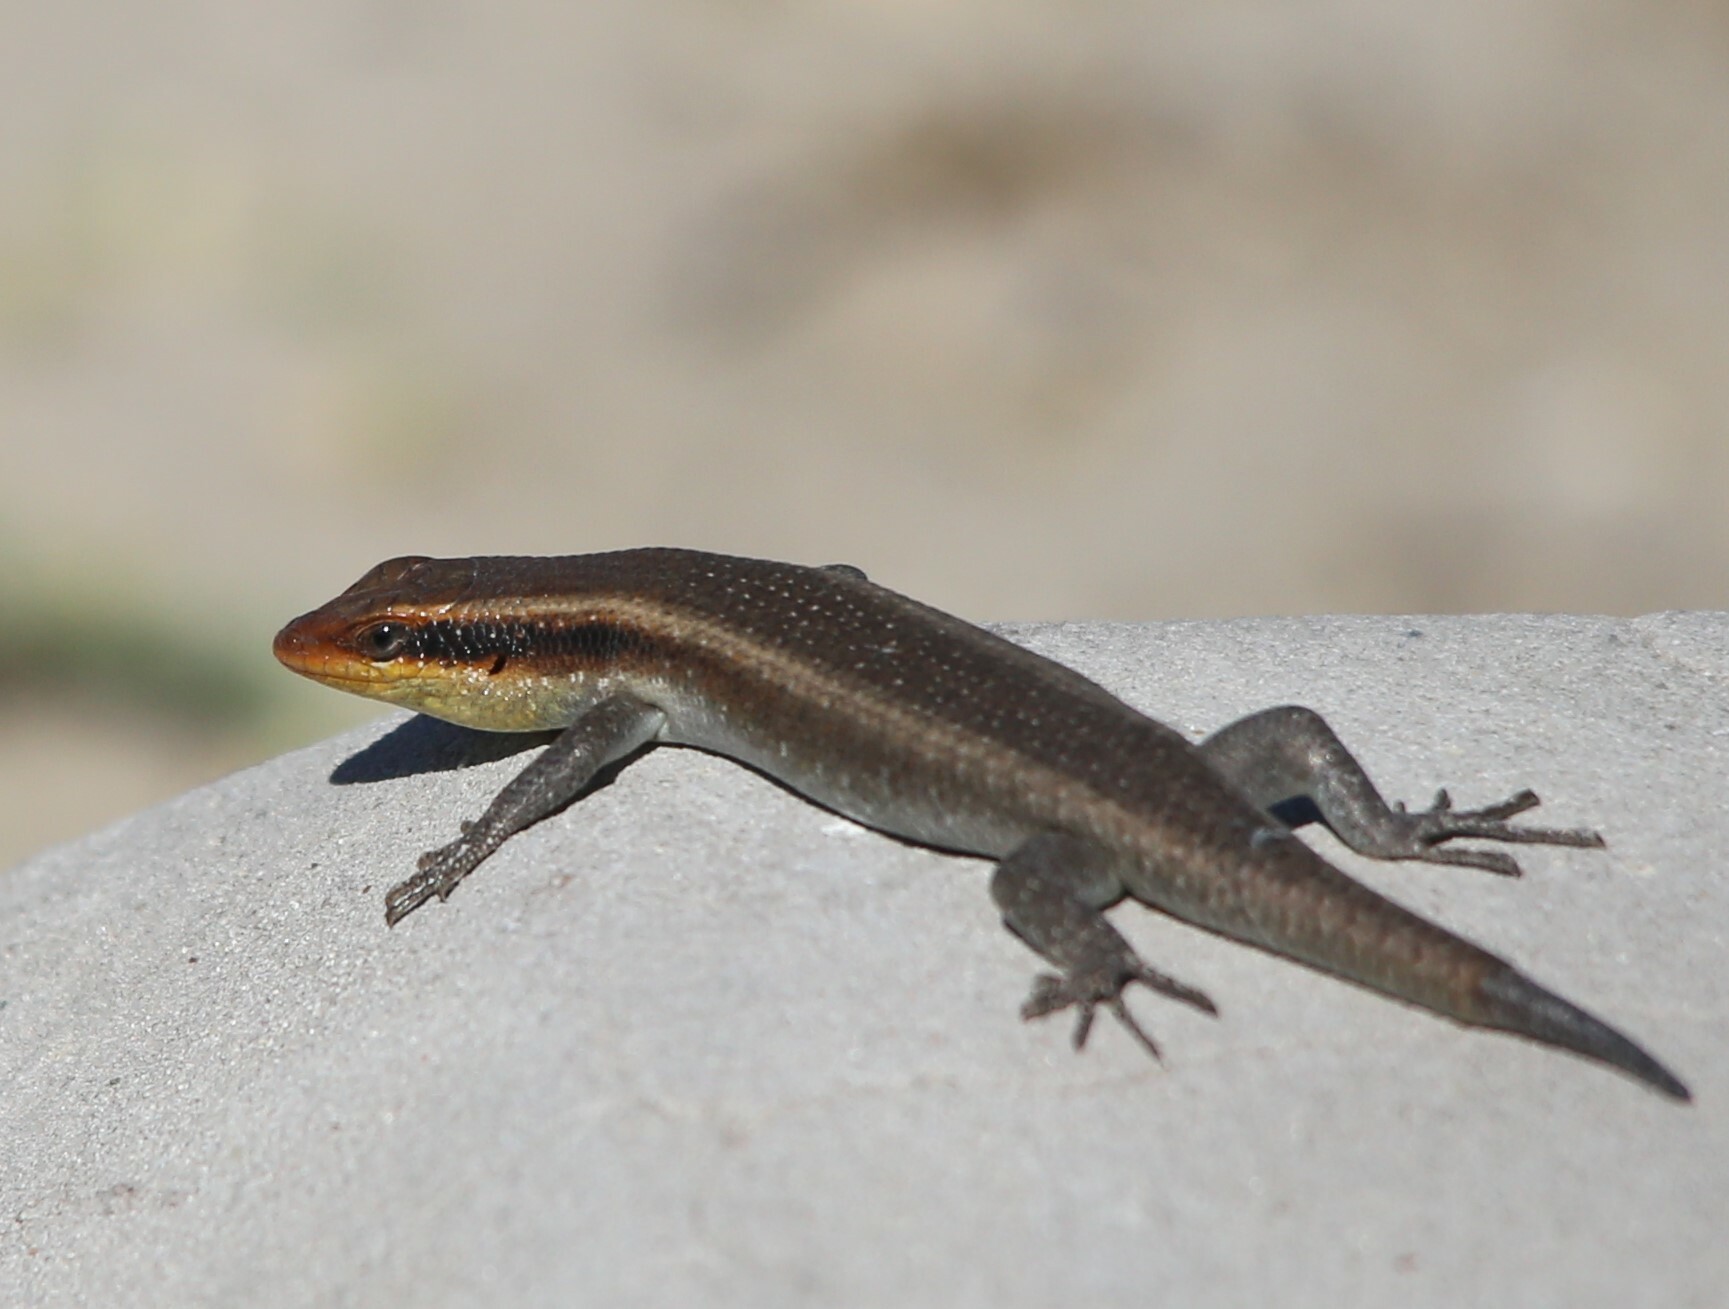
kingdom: Animalia
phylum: Chordata
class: Squamata
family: Scincidae
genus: Trachylepis
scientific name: Trachylepis wahlbergii
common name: Wahlberg’s striped skink
